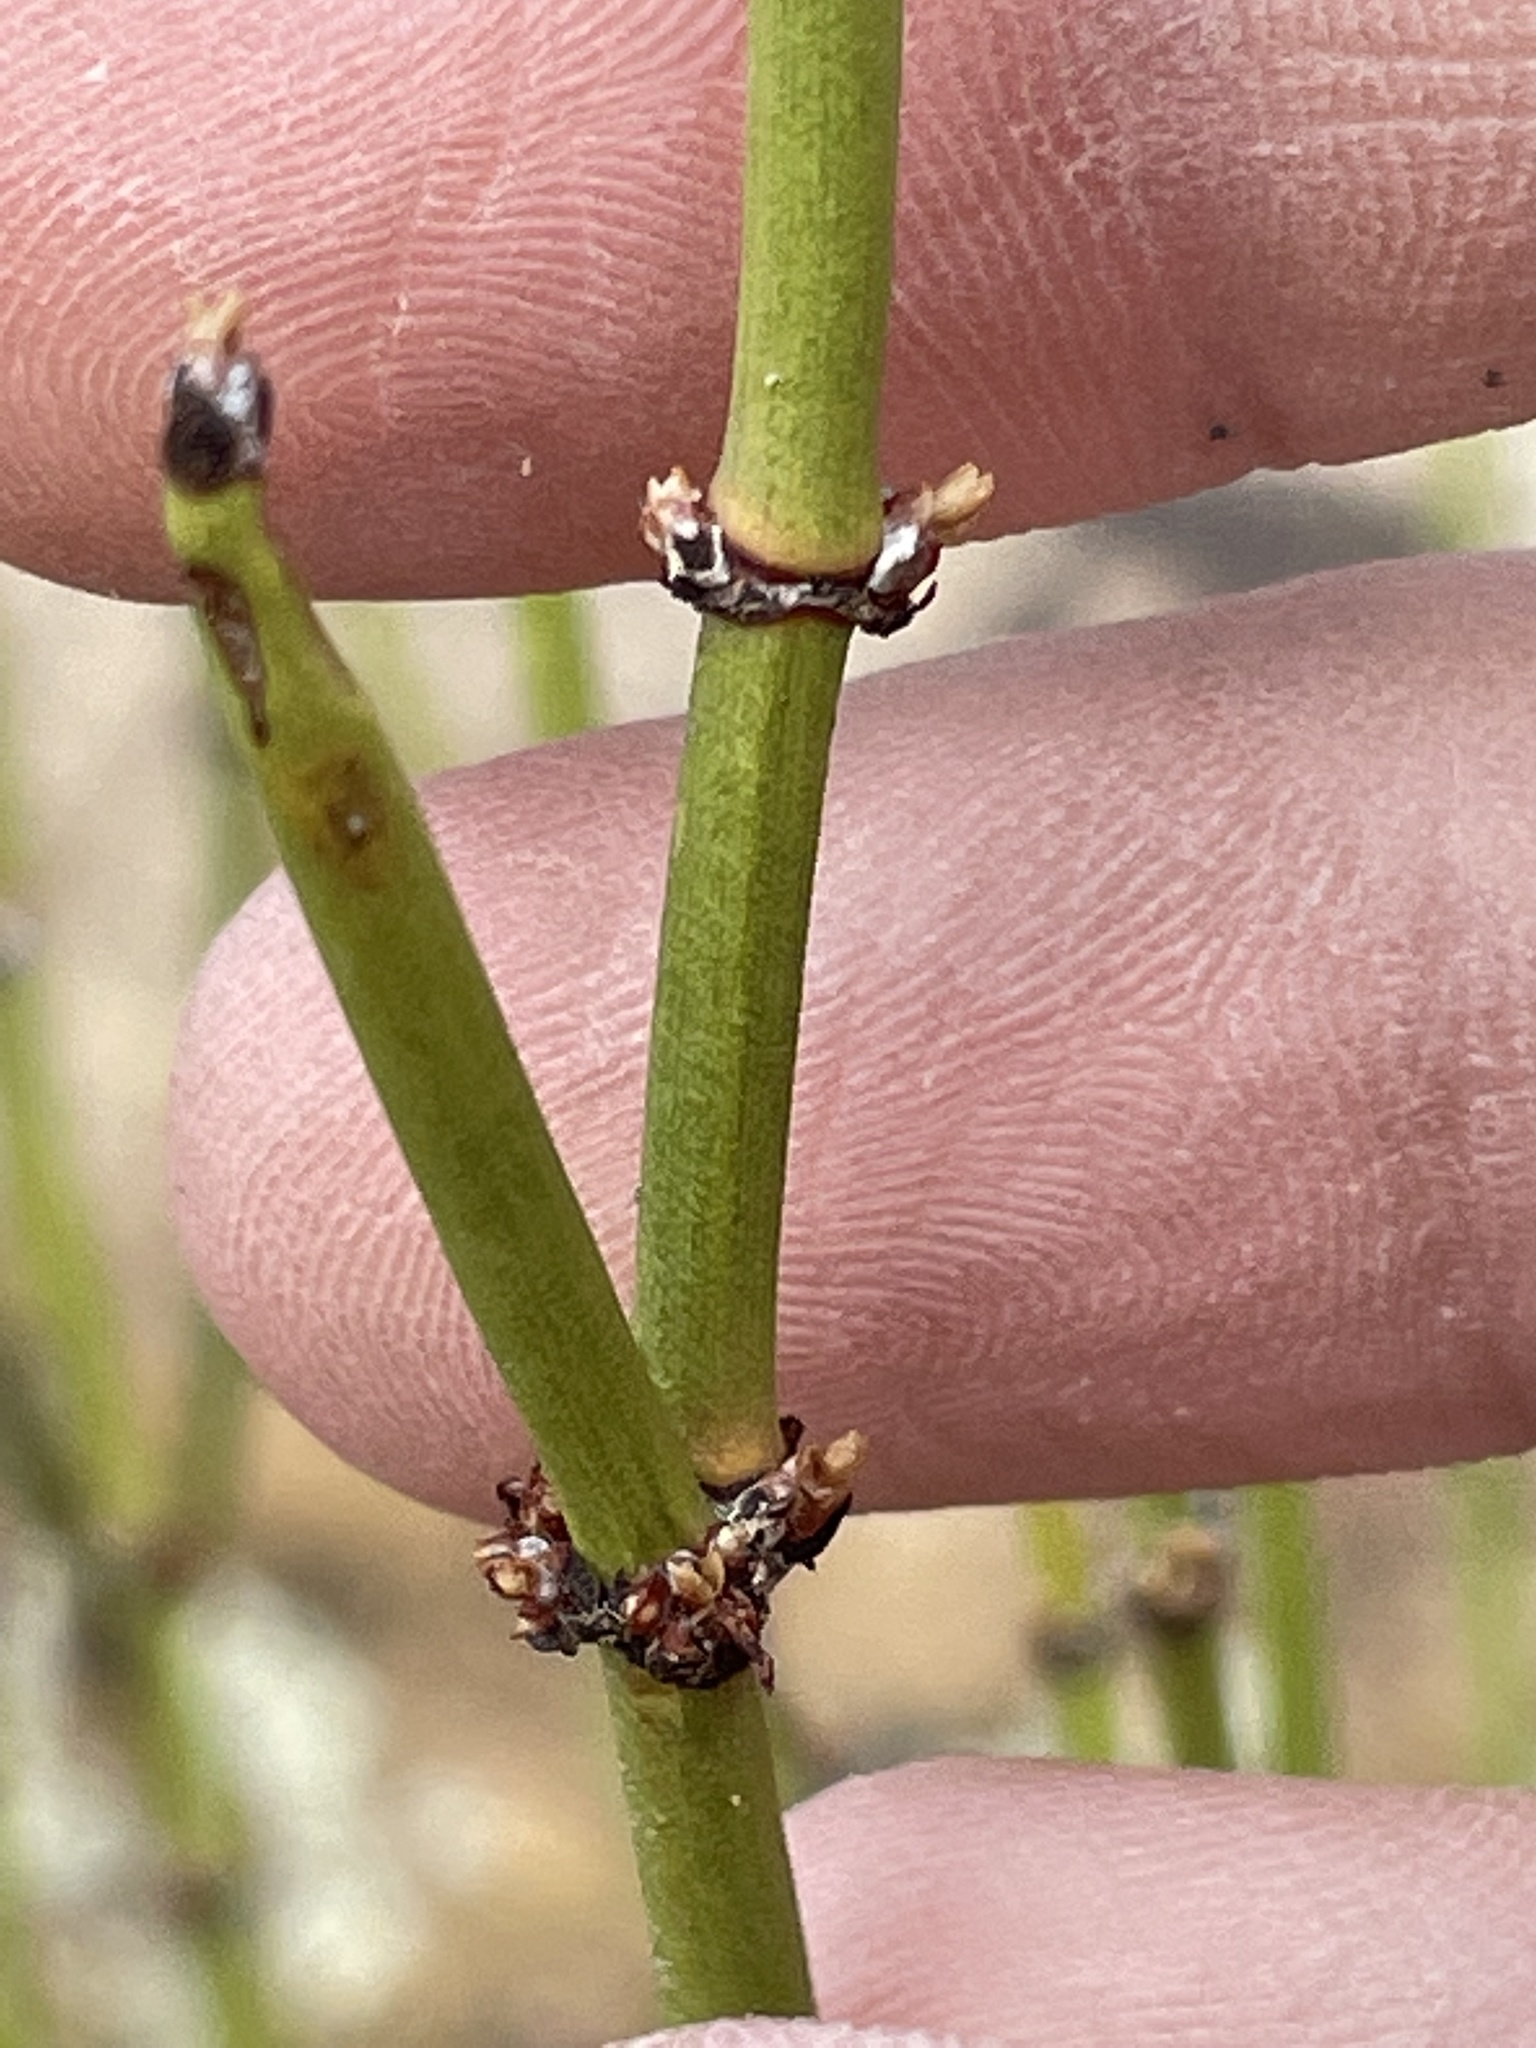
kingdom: Plantae
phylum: Tracheophyta
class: Gnetopsida
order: Ephedrales
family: Ephedraceae
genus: Ephedra
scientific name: Ephedra viridis
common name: Green ephedra
